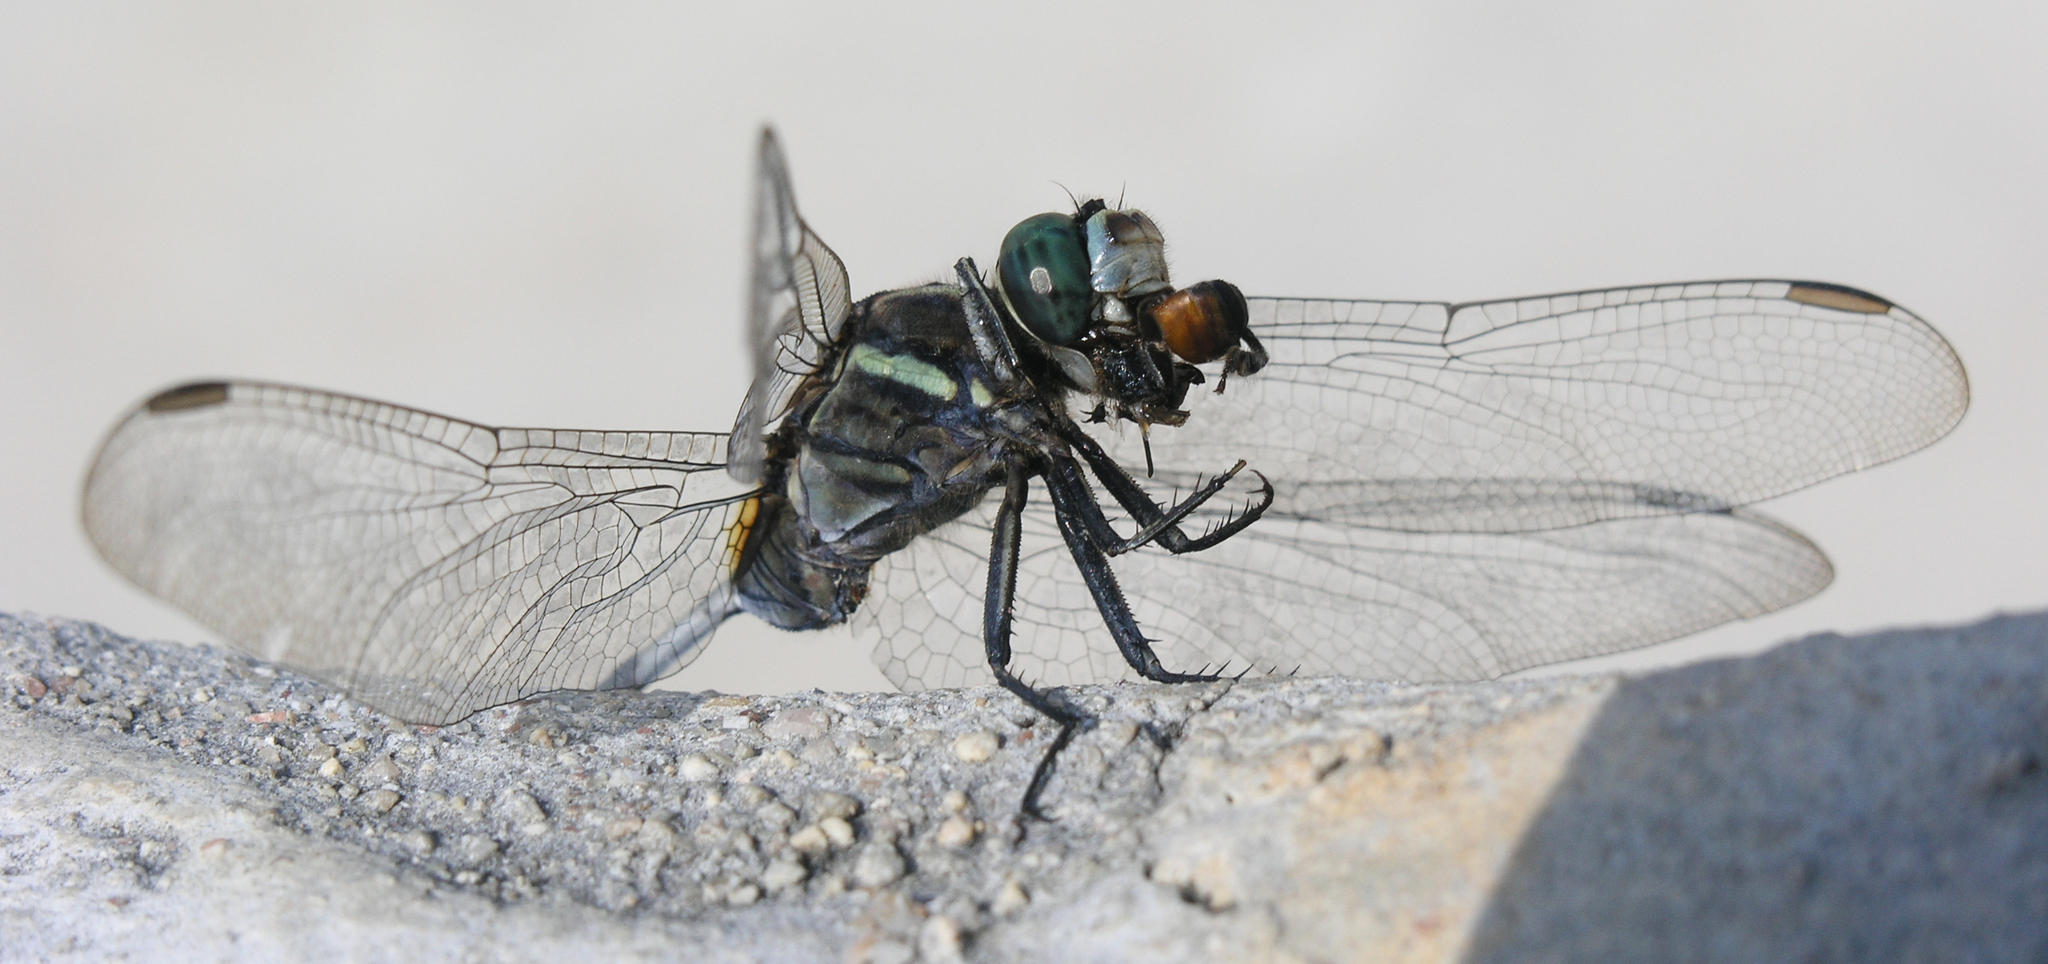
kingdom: Animalia
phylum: Arthropoda
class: Insecta
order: Odonata
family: Libellulidae
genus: Orthetrum
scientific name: Orthetrum sabina
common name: Slender skimmer
